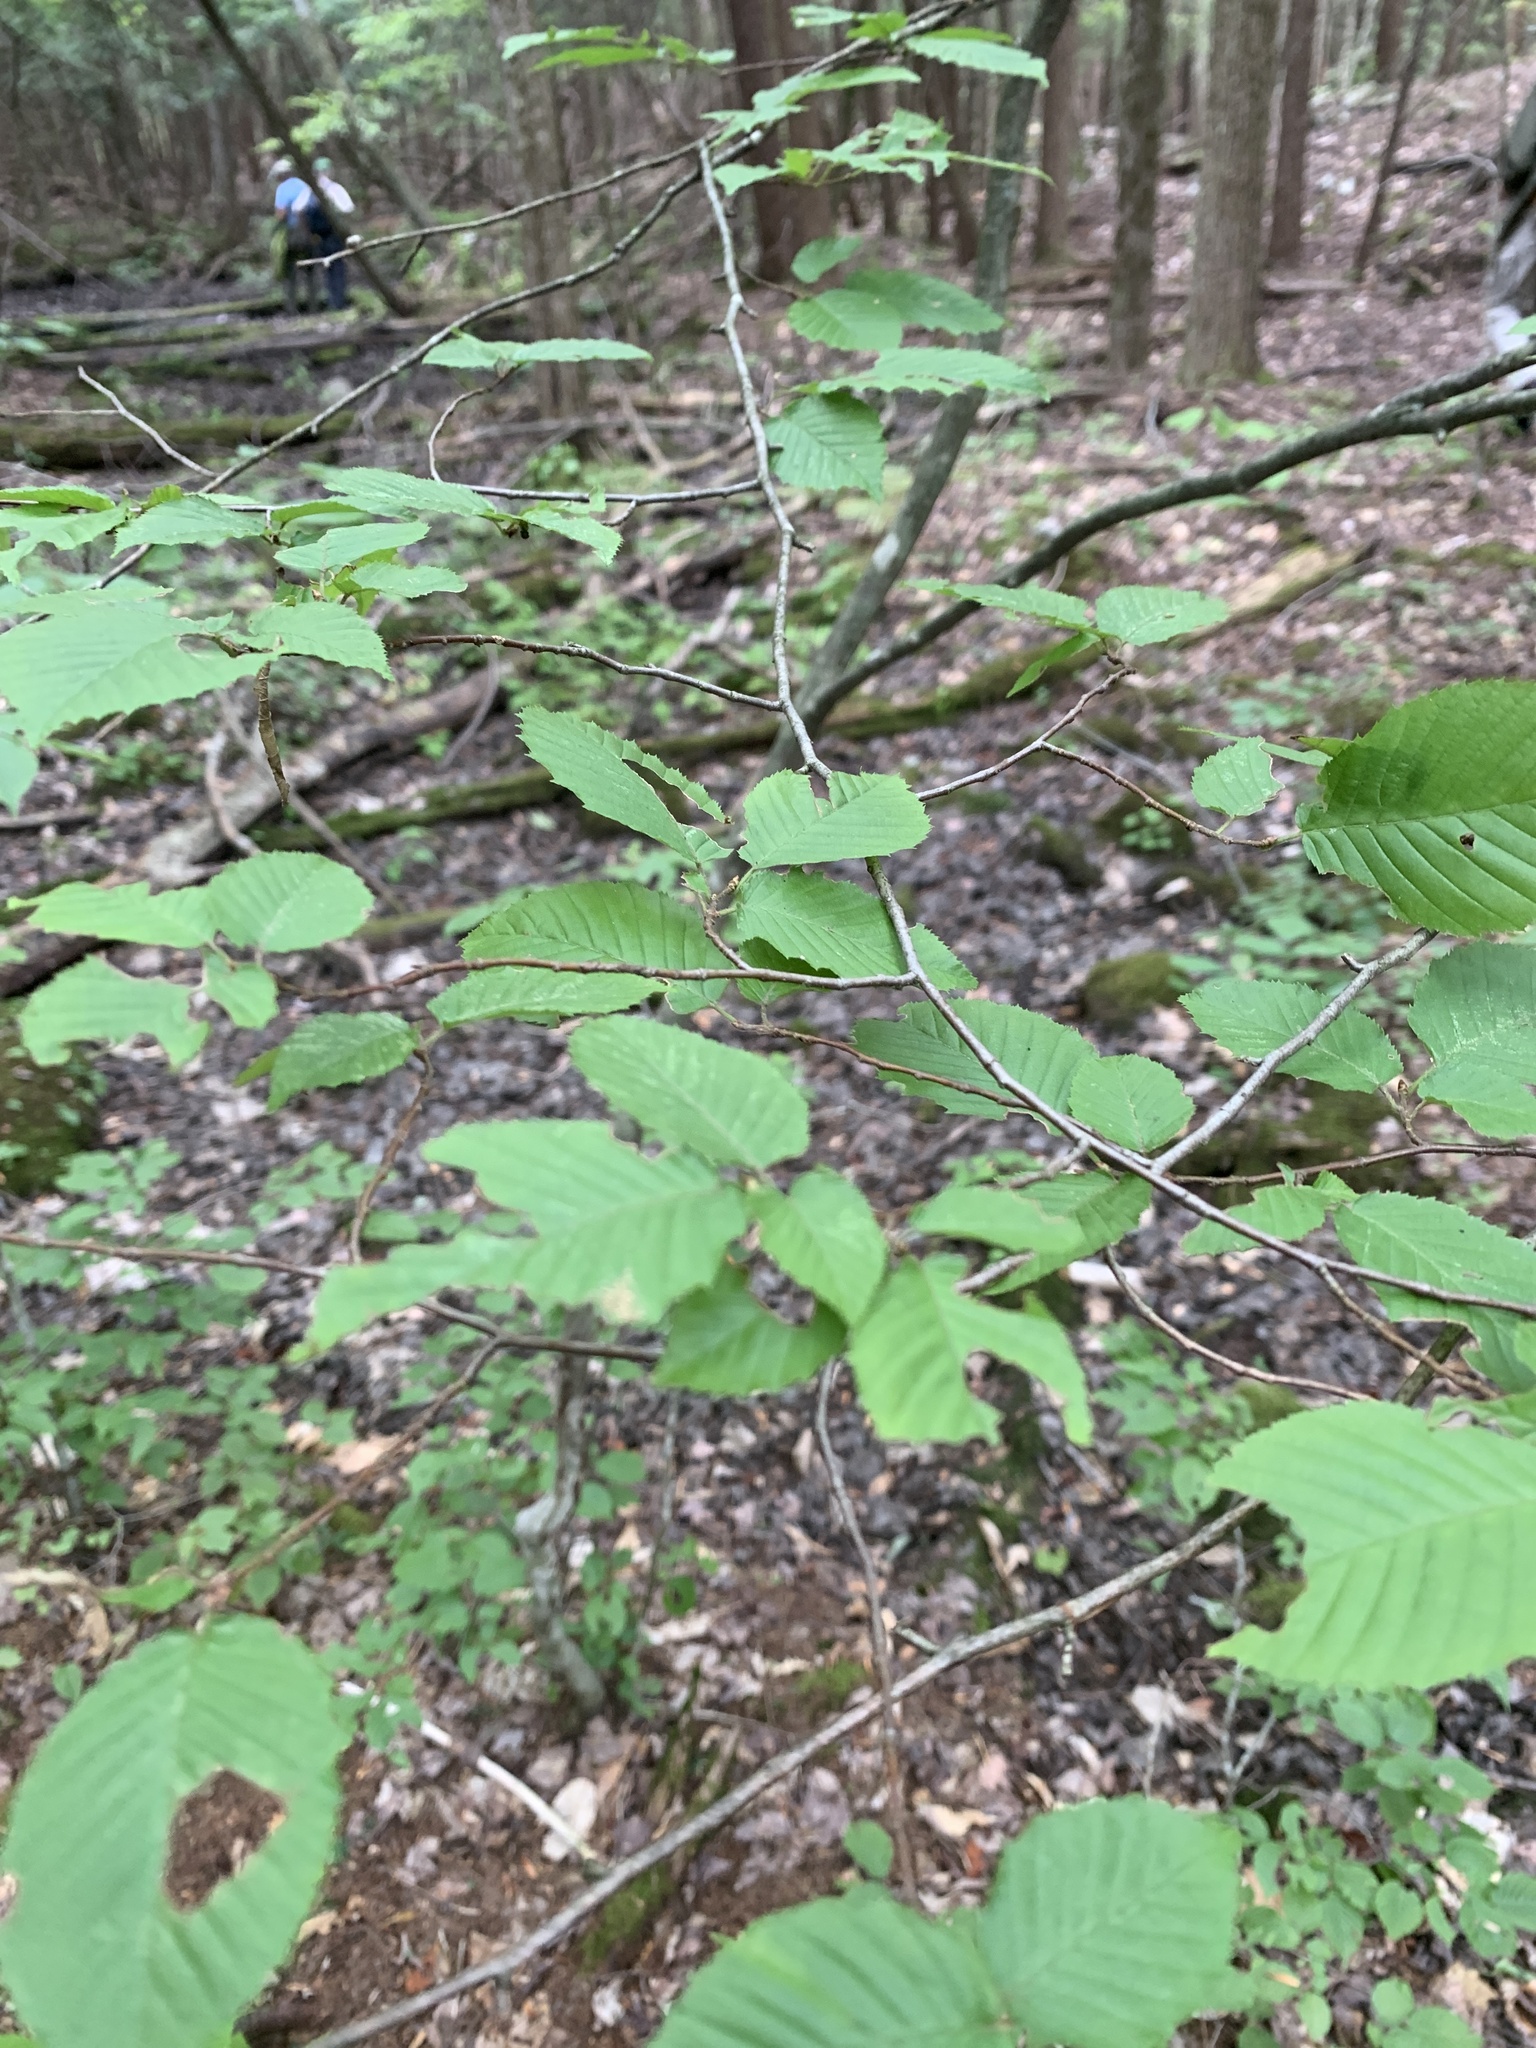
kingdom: Plantae
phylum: Tracheophyta
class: Magnoliopsida
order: Fagales
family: Betulaceae
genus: Carpinus
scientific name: Carpinus caroliniana
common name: American hornbeam
